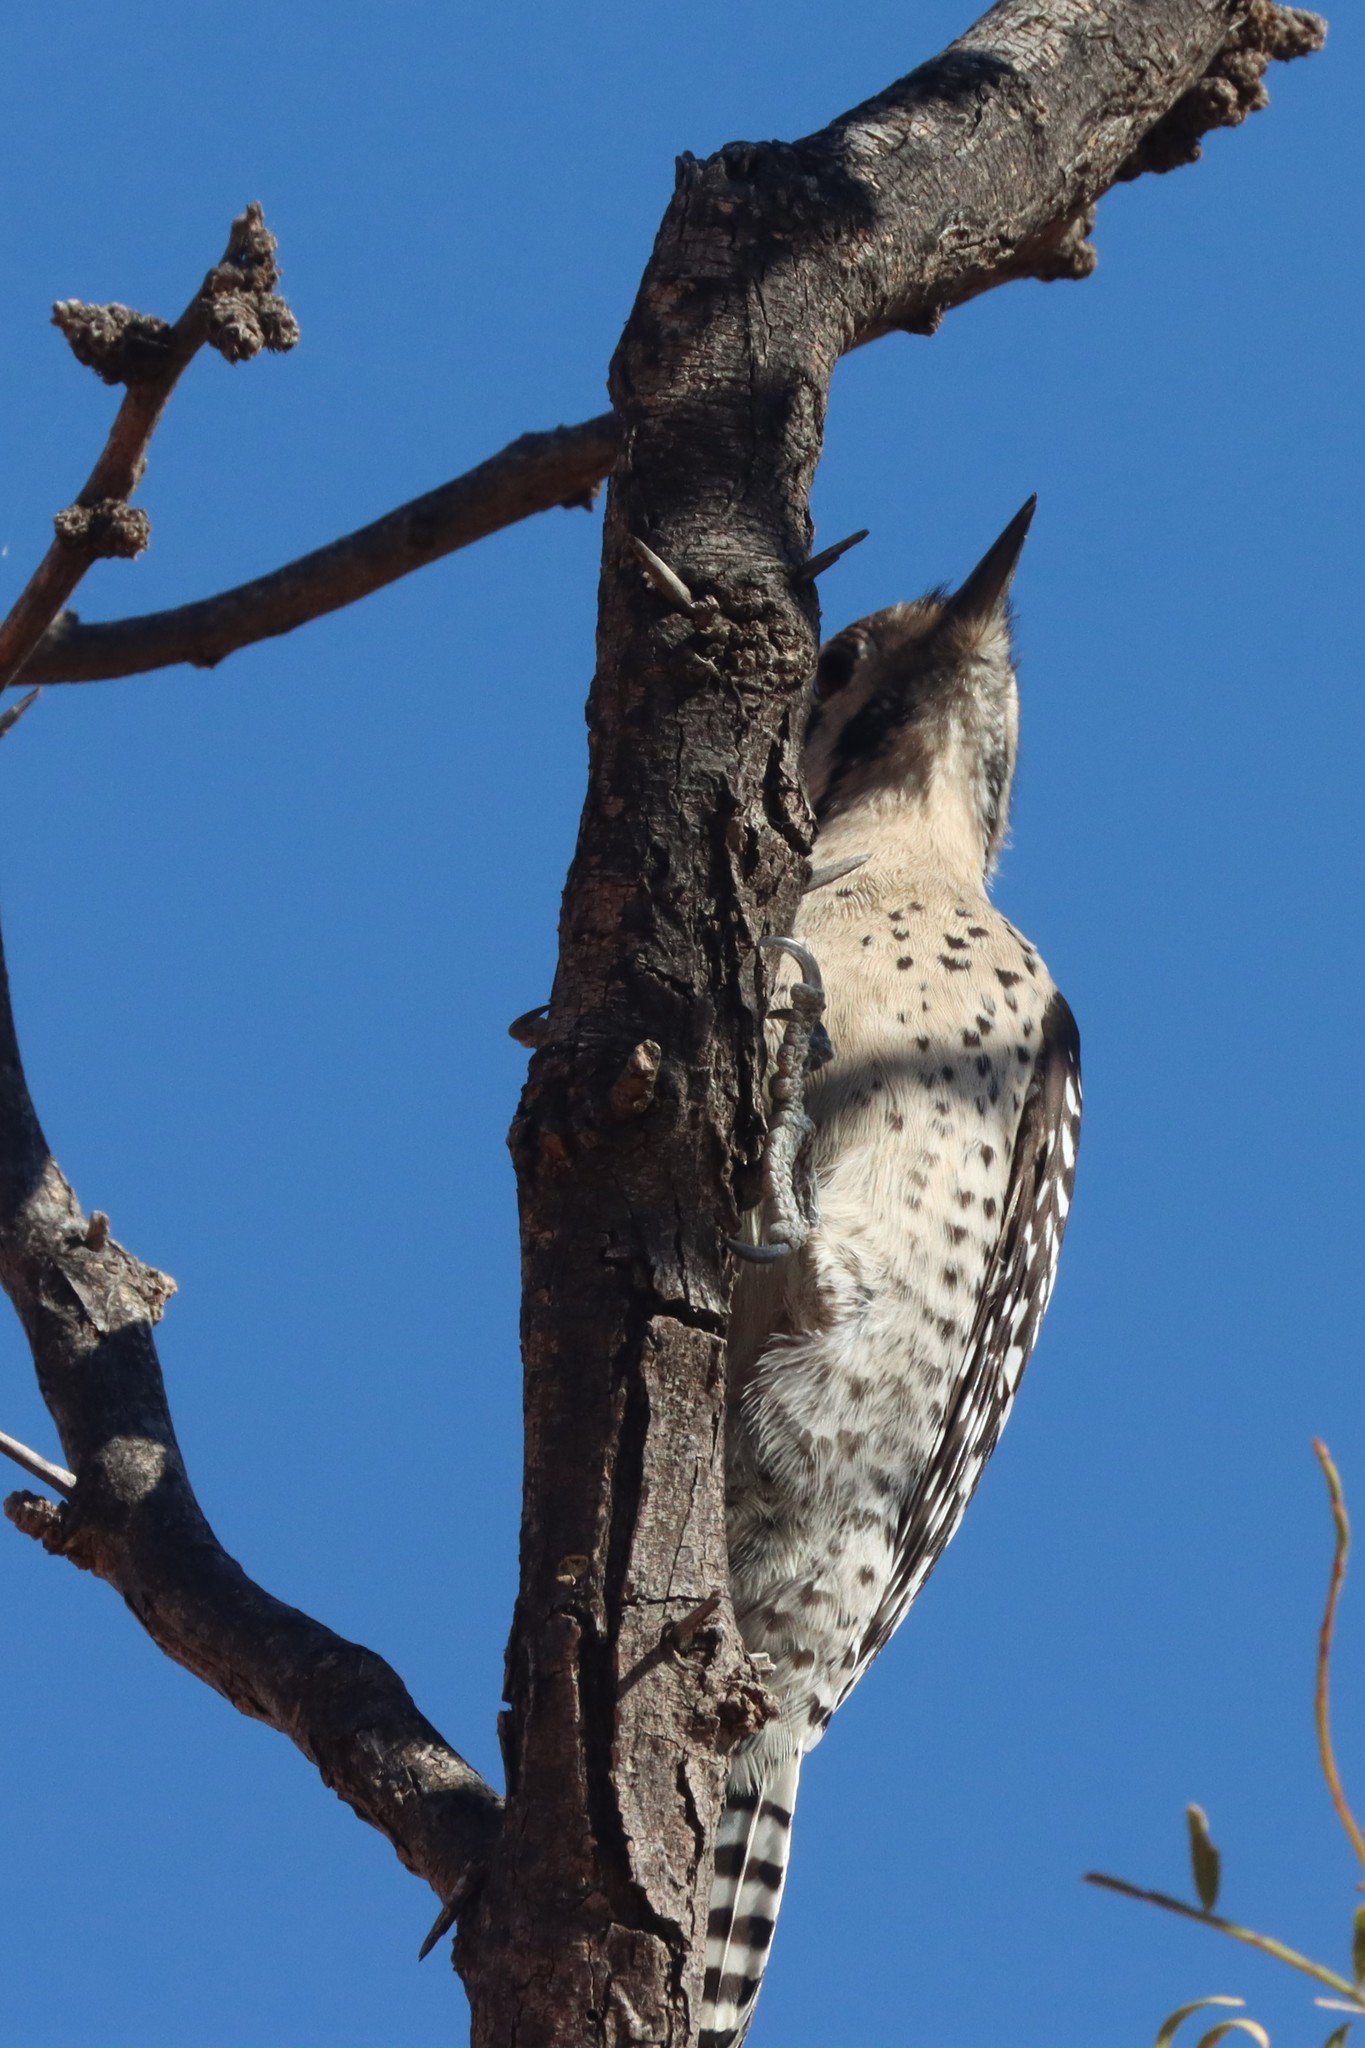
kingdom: Animalia
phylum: Chordata
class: Aves
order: Piciformes
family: Picidae
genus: Dryobates
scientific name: Dryobates scalaris
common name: Ladder-backed woodpecker
